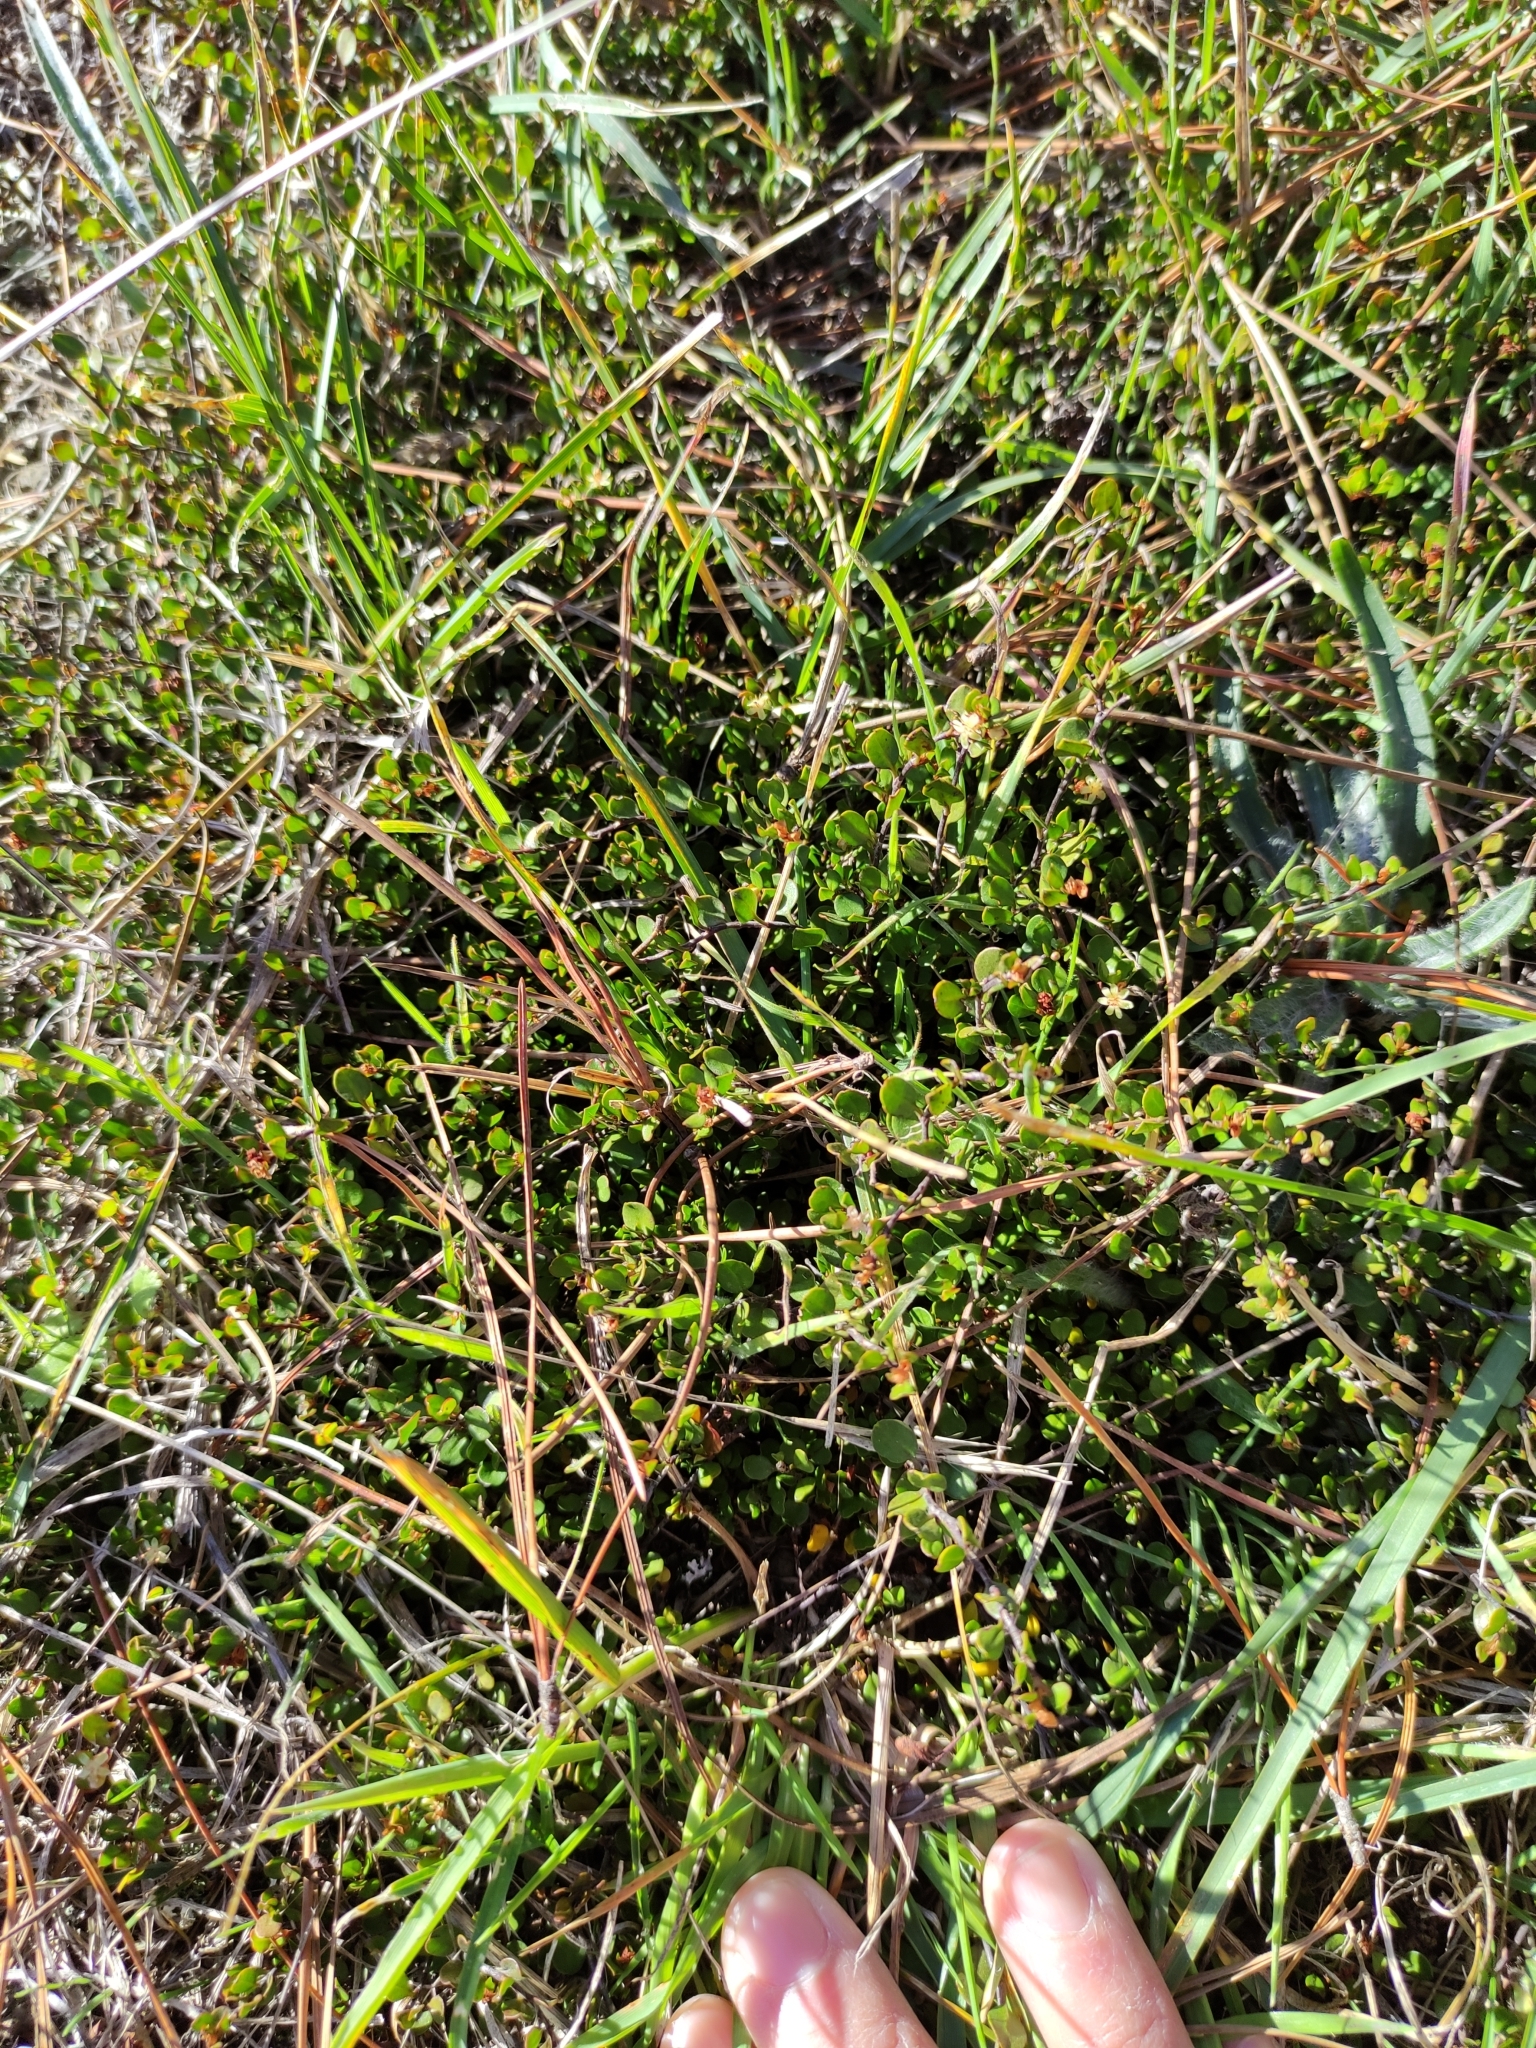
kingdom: Plantae
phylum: Tracheophyta
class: Magnoliopsida
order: Caryophyllales
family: Polygonaceae
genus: Muehlenbeckia
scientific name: Muehlenbeckia axillaris
